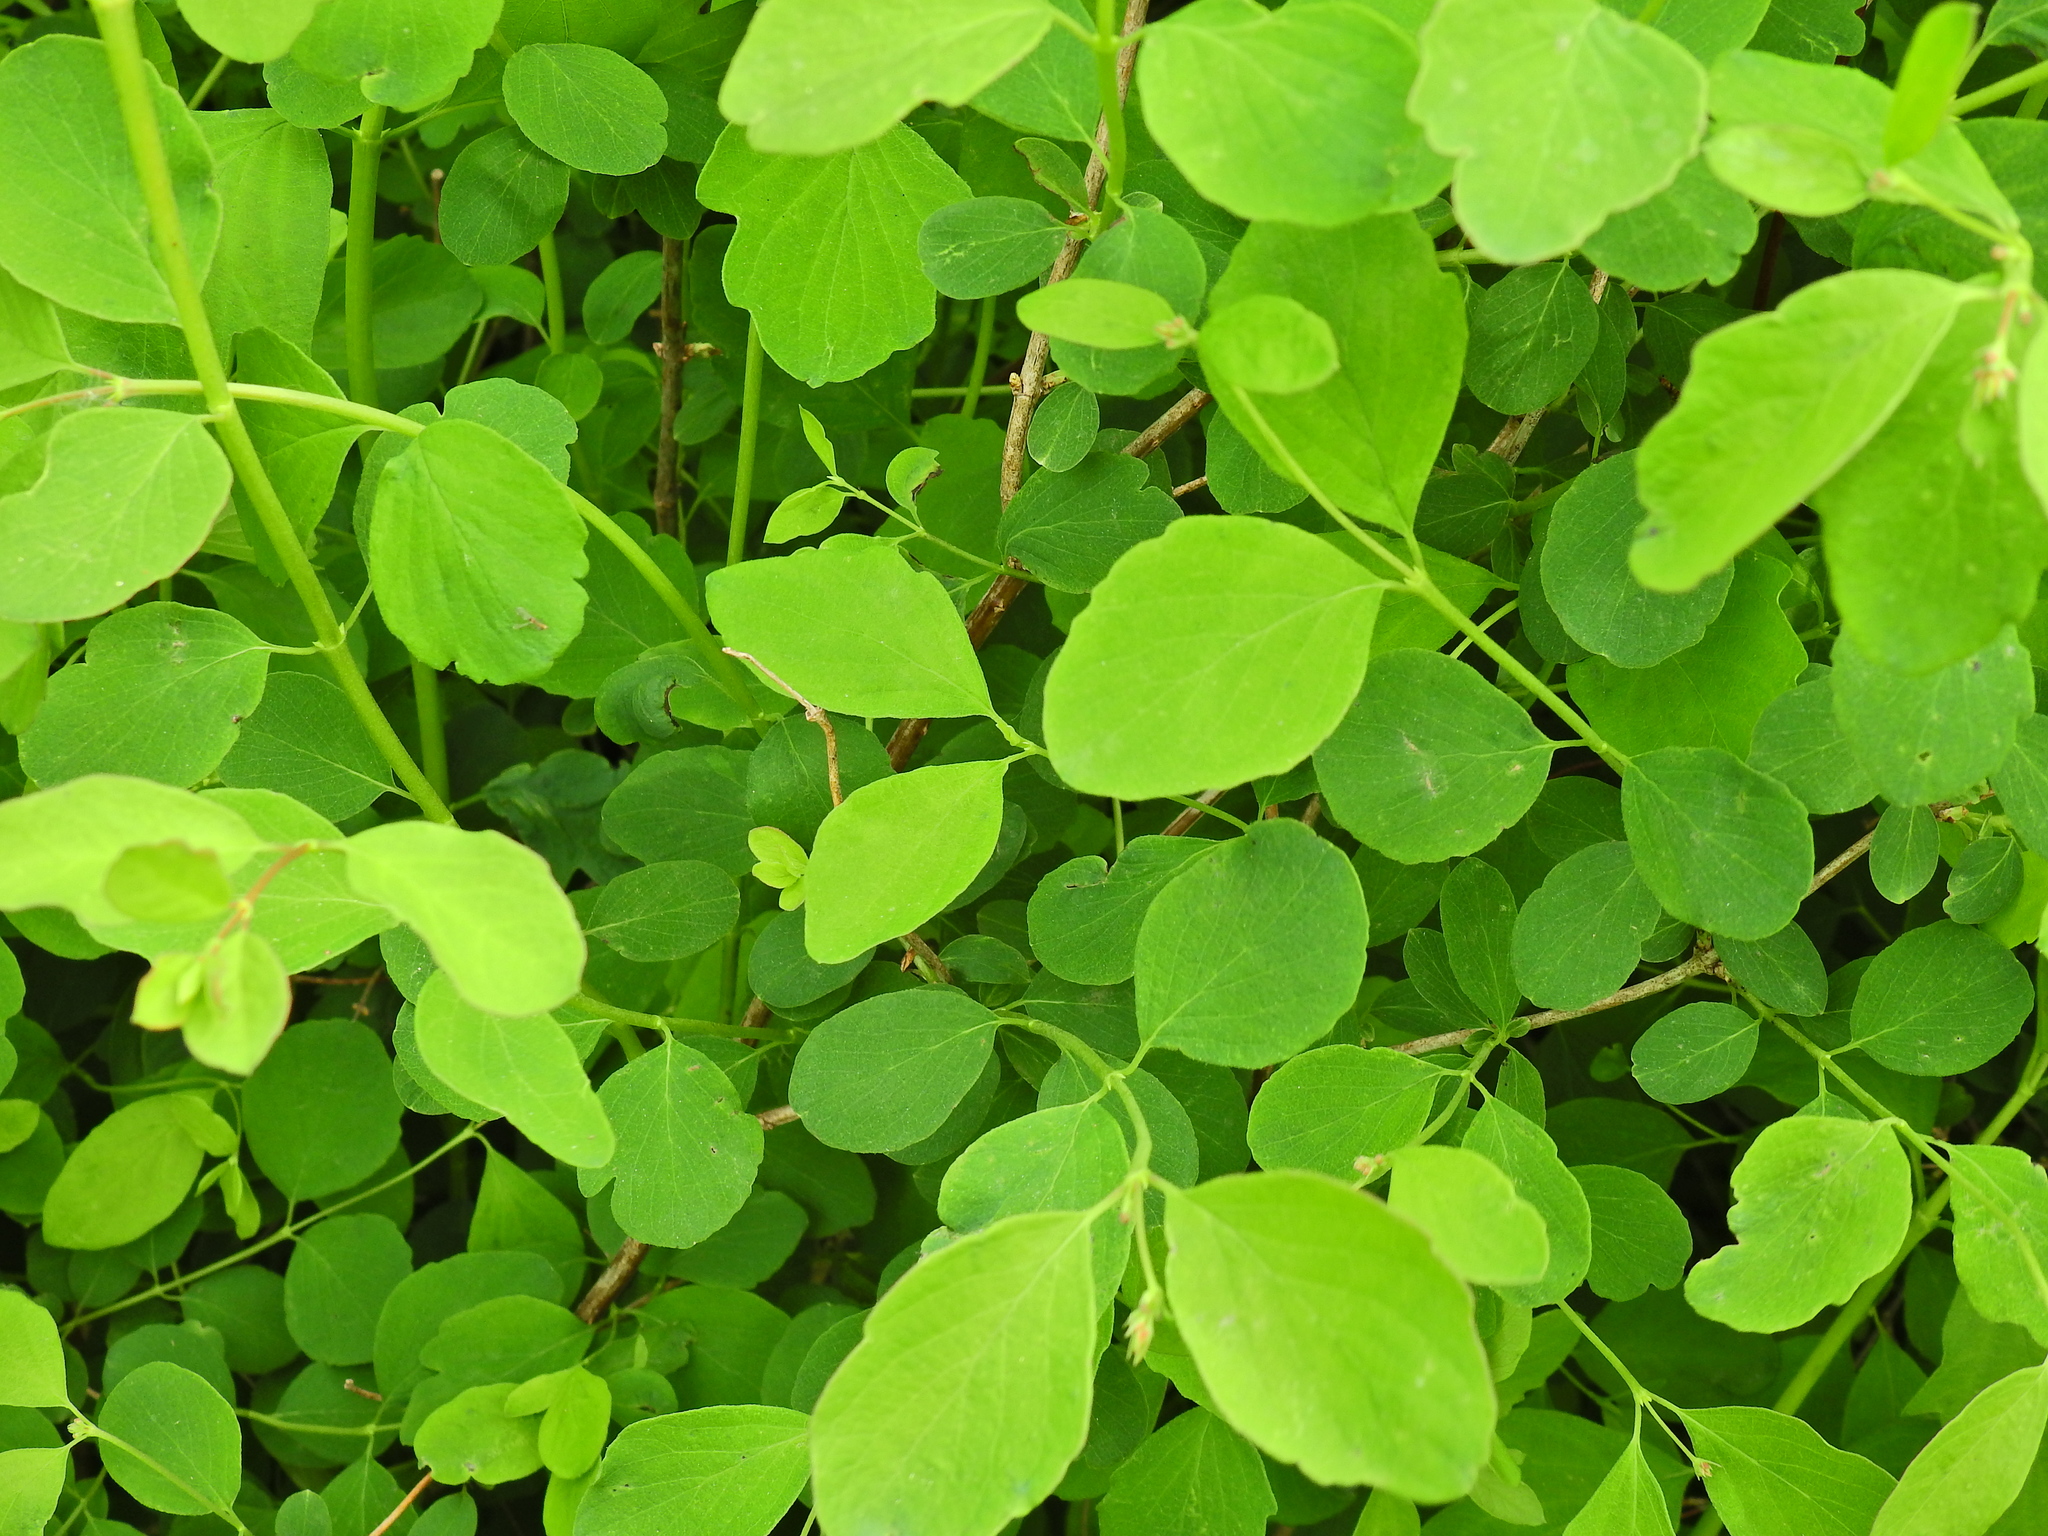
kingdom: Plantae
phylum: Tracheophyta
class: Magnoliopsida
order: Dipsacales
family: Caprifoliaceae
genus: Symphoricarpos
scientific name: Symphoricarpos albus
